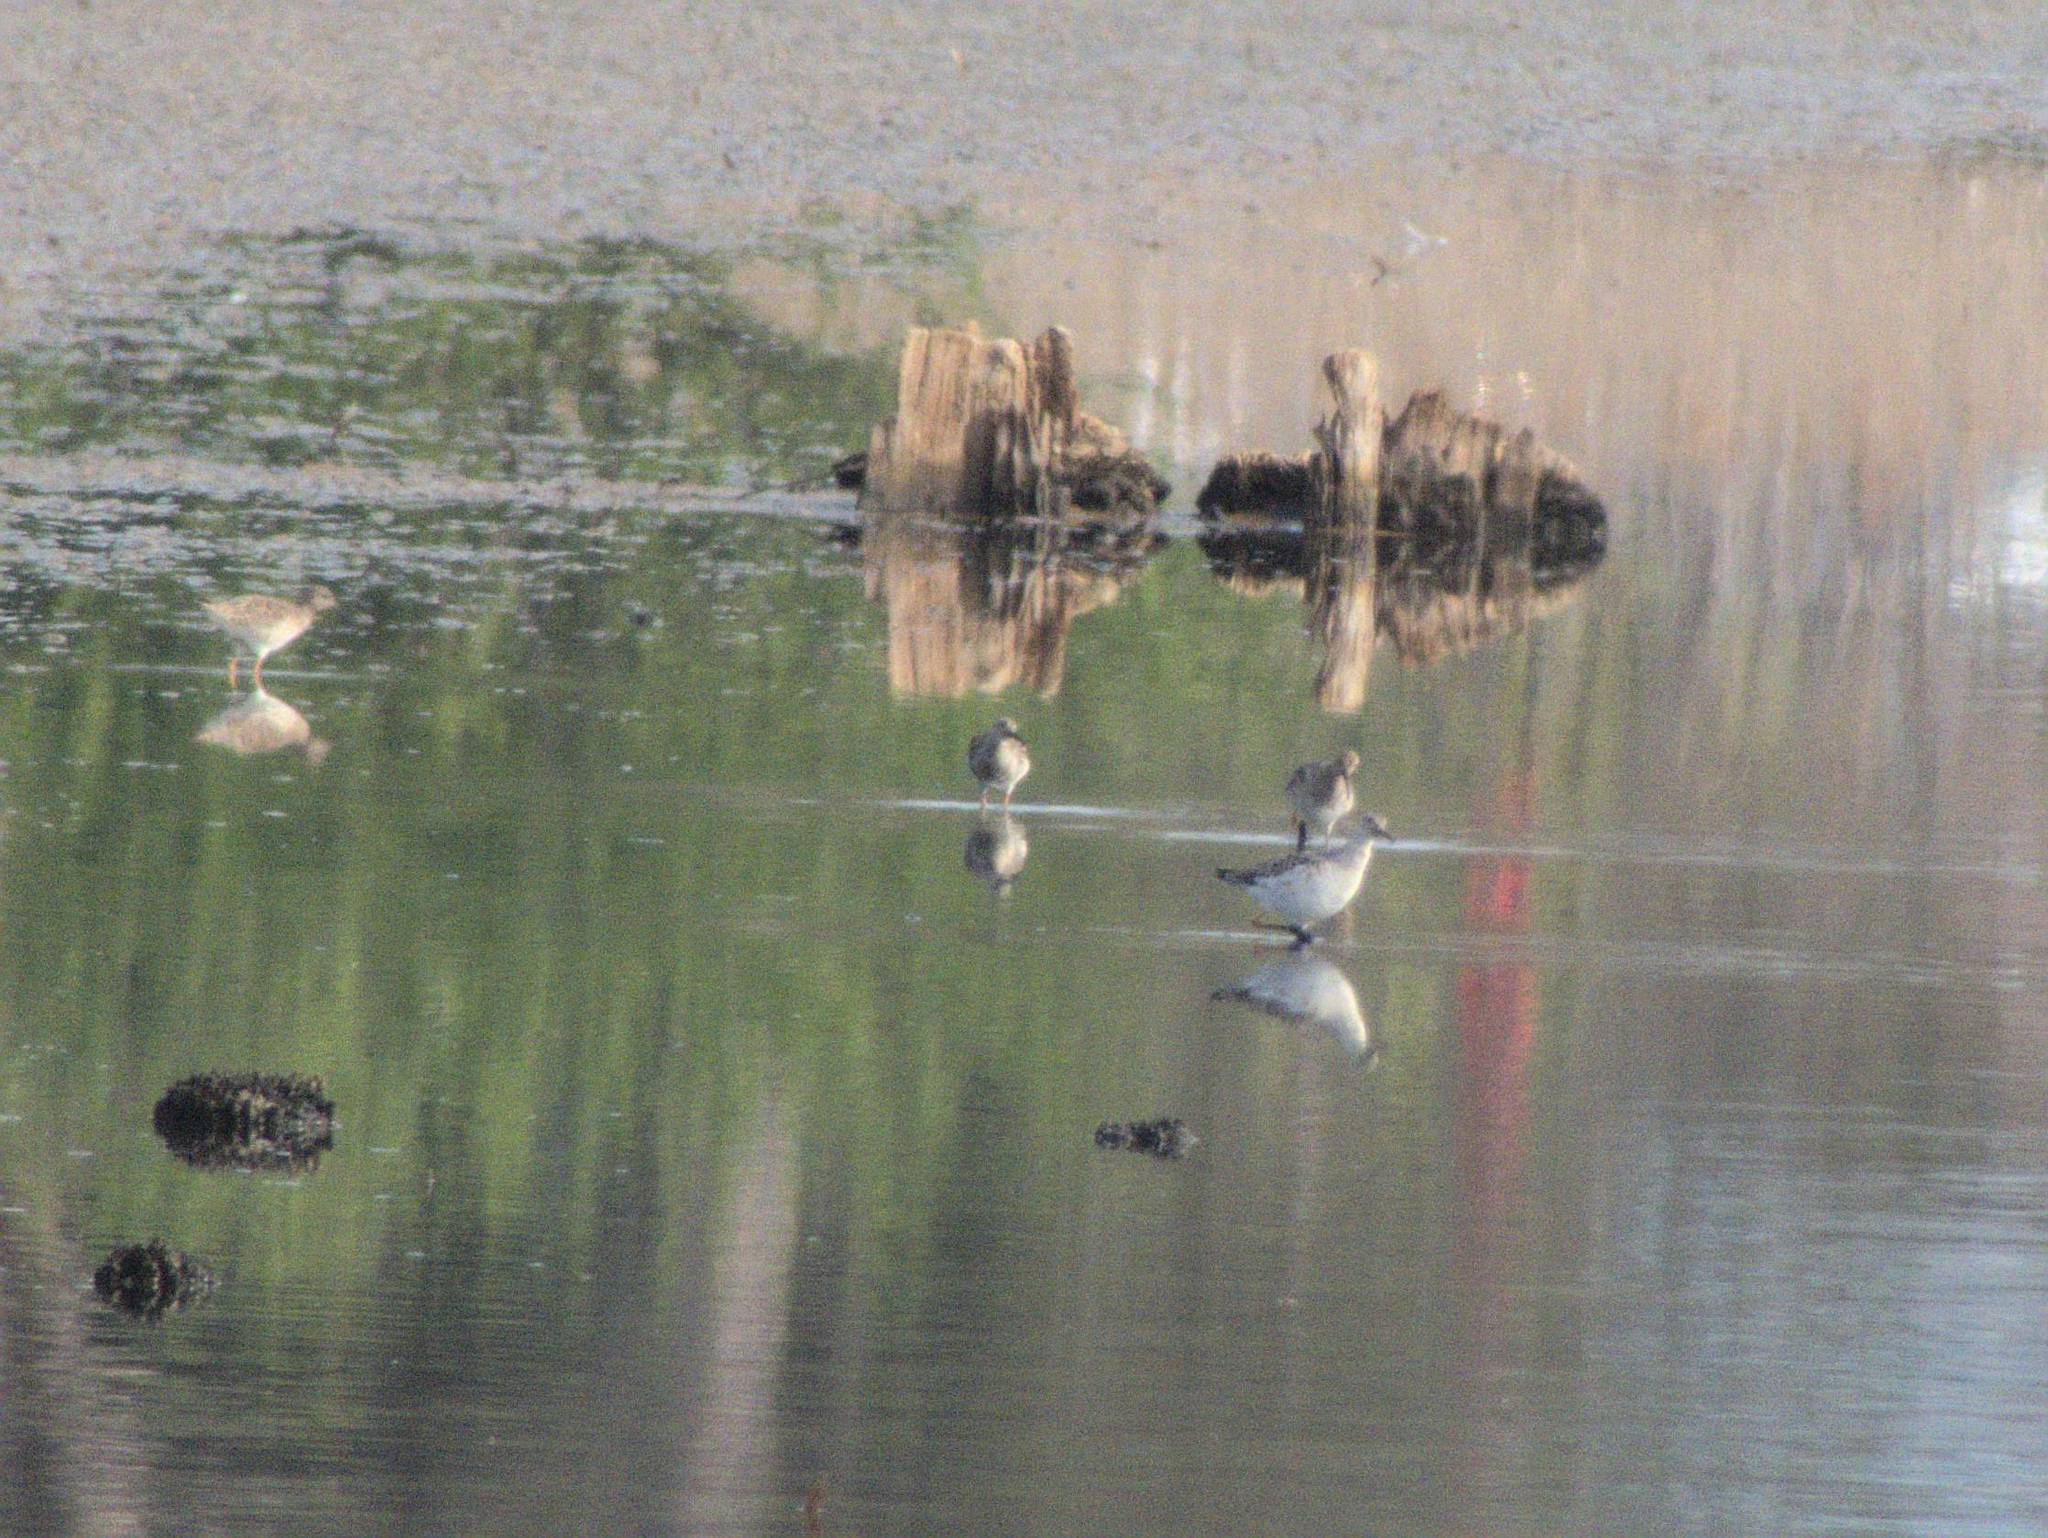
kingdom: Animalia
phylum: Chordata
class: Aves
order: Charadriiformes
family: Scolopacidae
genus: Calidris
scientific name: Calidris pugnax
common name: Ruff
